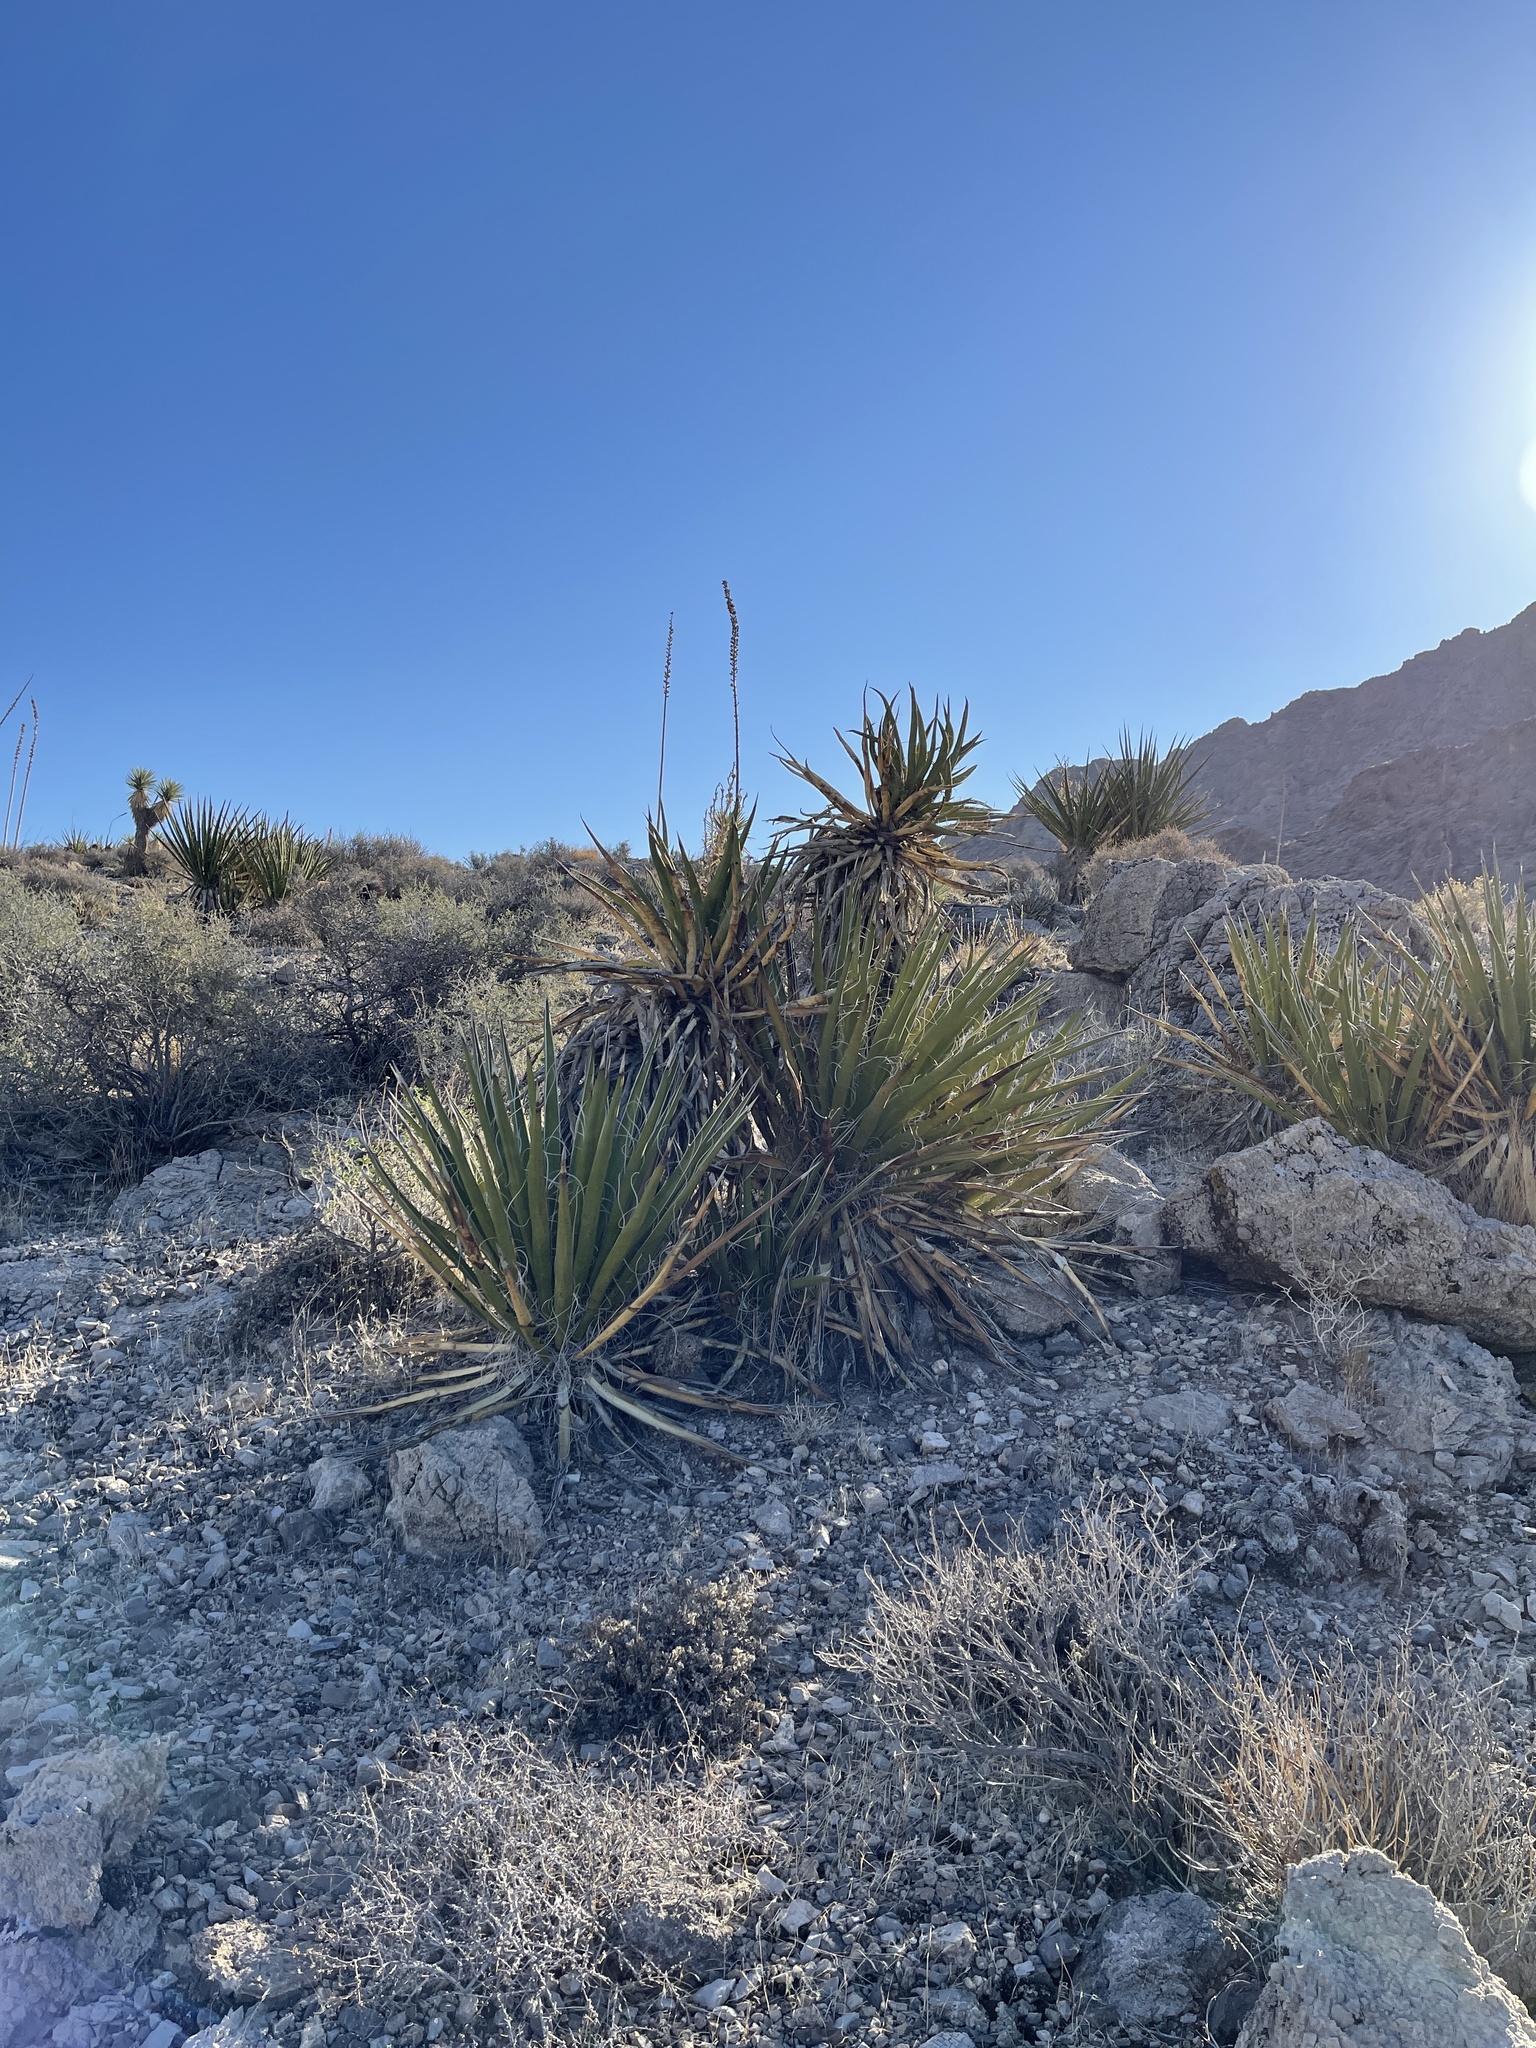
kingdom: Plantae
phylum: Tracheophyta
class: Liliopsida
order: Asparagales
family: Asparagaceae
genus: Yucca
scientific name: Yucca schidigera
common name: Mojave yucca
